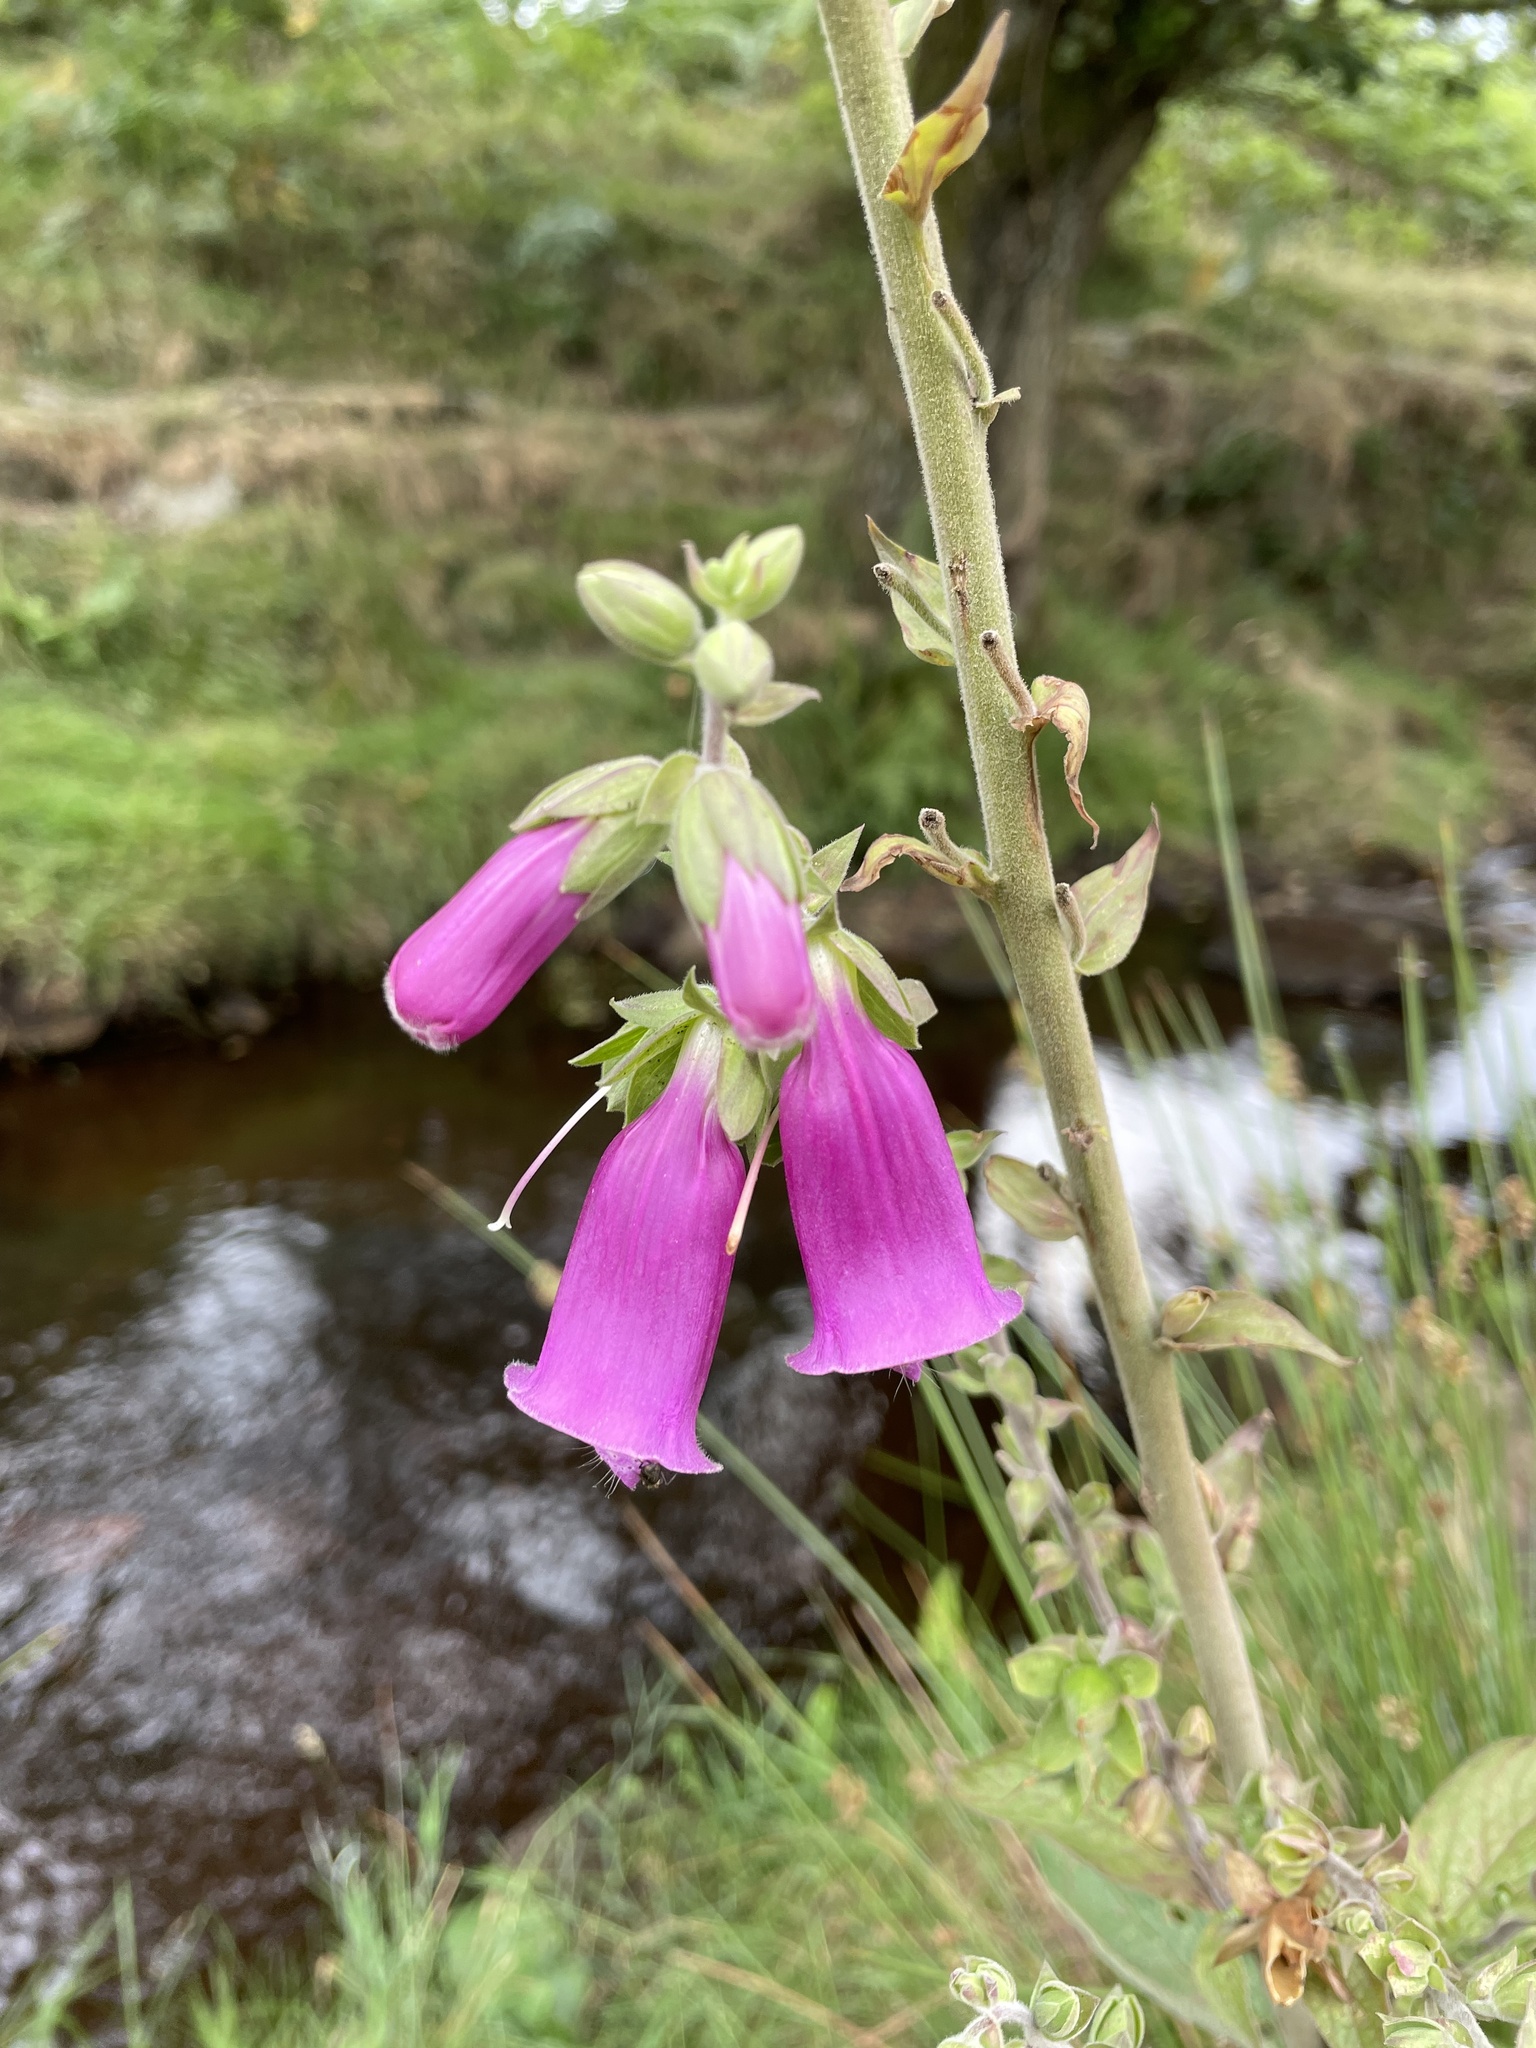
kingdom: Plantae
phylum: Tracheophyta
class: Magnoliopsida
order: Lamiales
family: Plantaginaceae
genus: Digitalis
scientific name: Digitalis purpurea
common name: Foxglove
